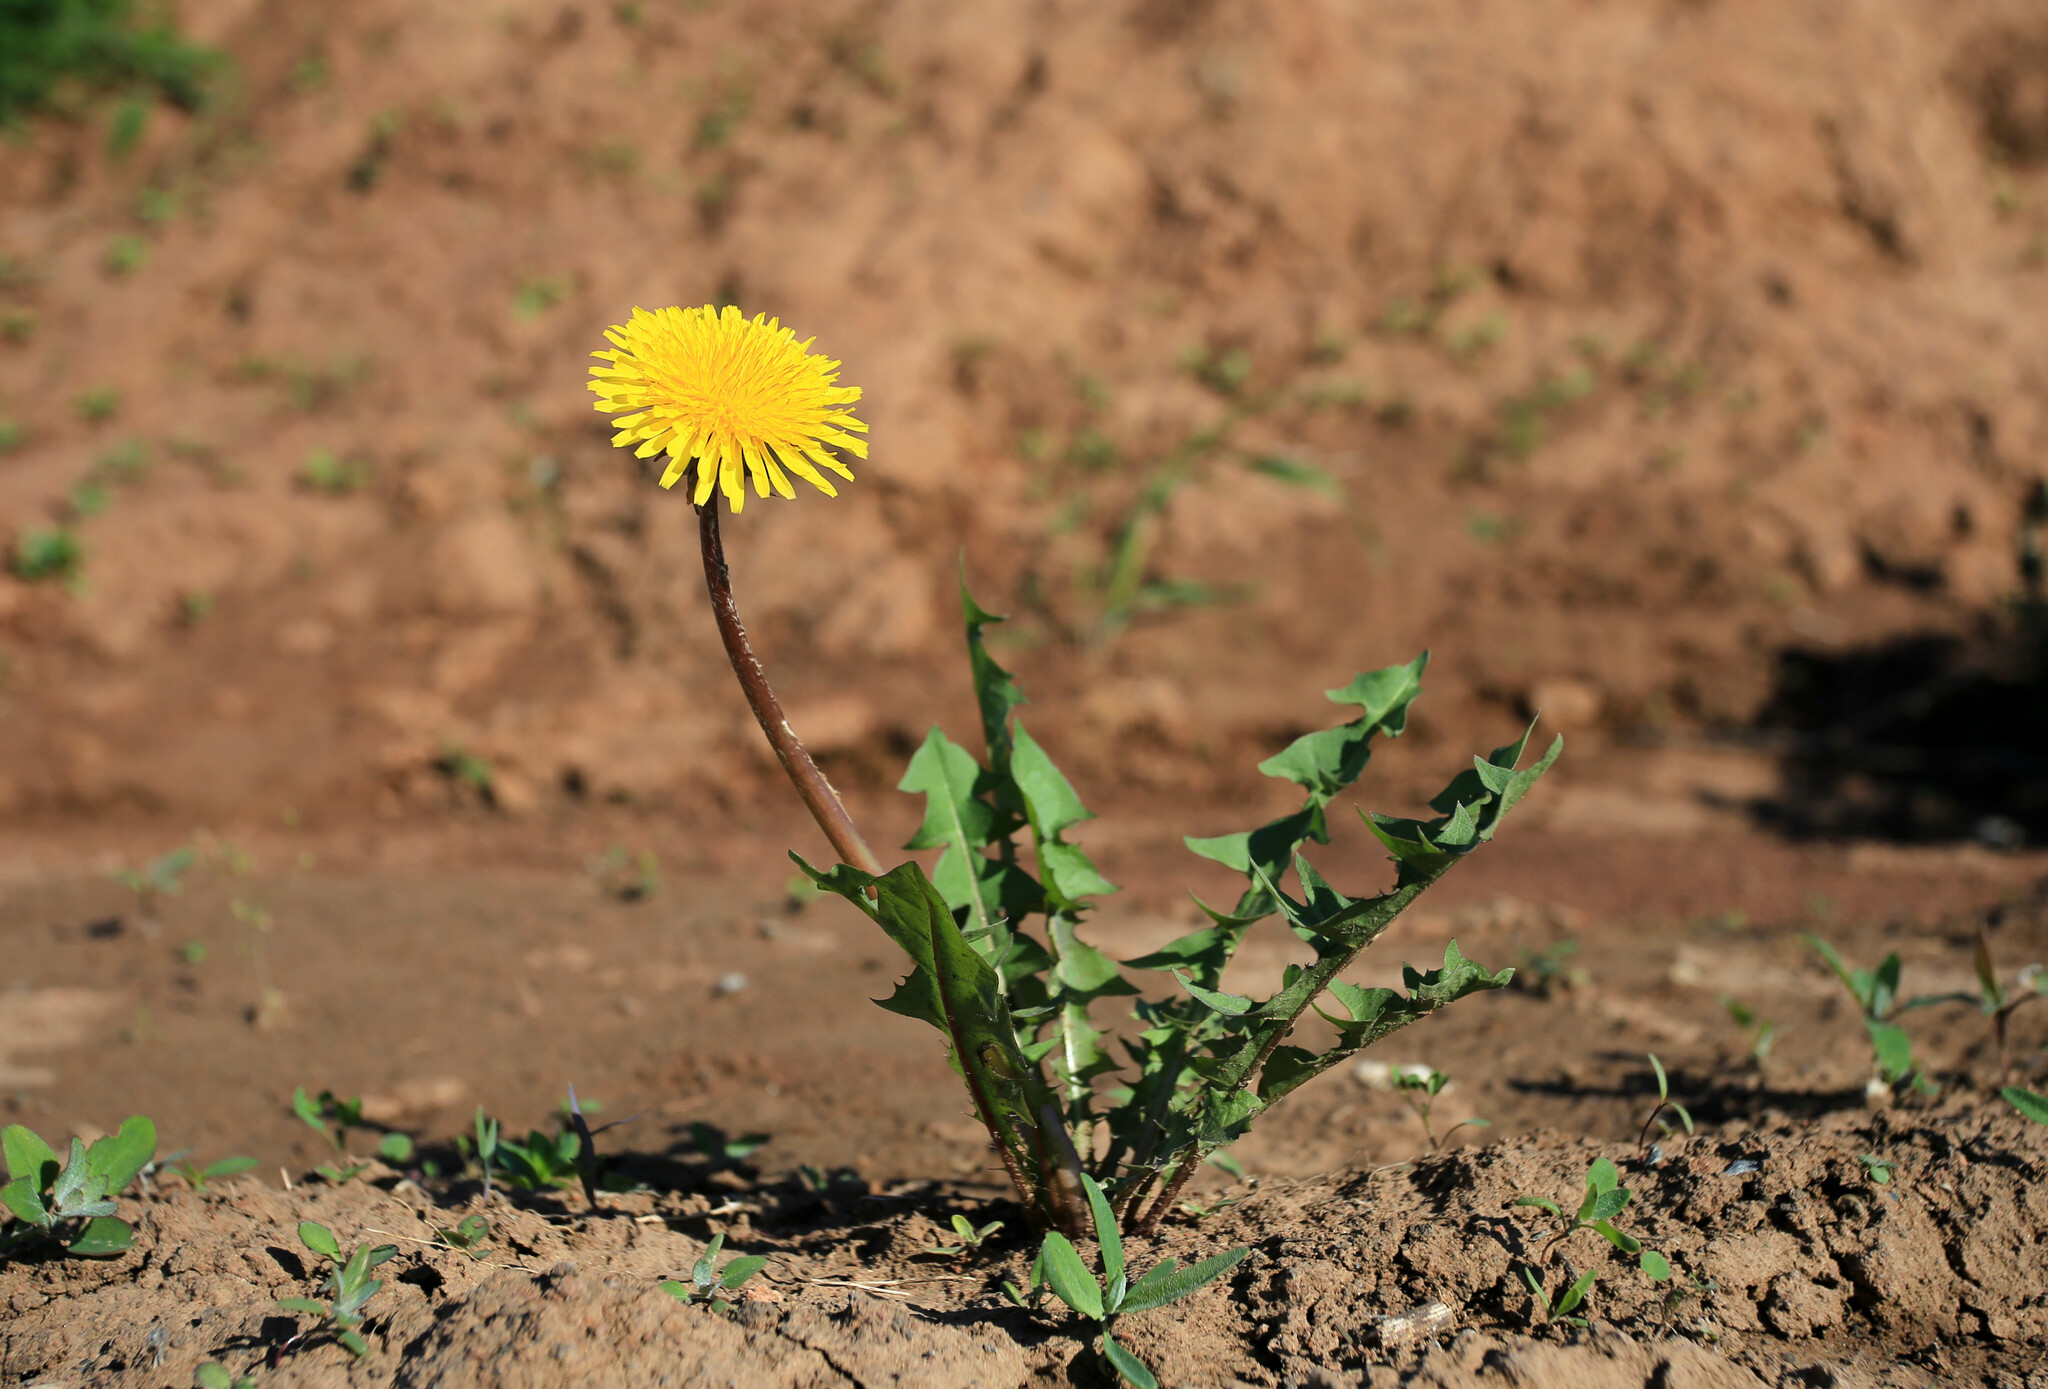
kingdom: Plantae
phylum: Tracheophyta
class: Magnoliopsida
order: Asterales
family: Asteraceae
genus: Taraxacum
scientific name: Taraxacum officinale
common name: Common dandelion
